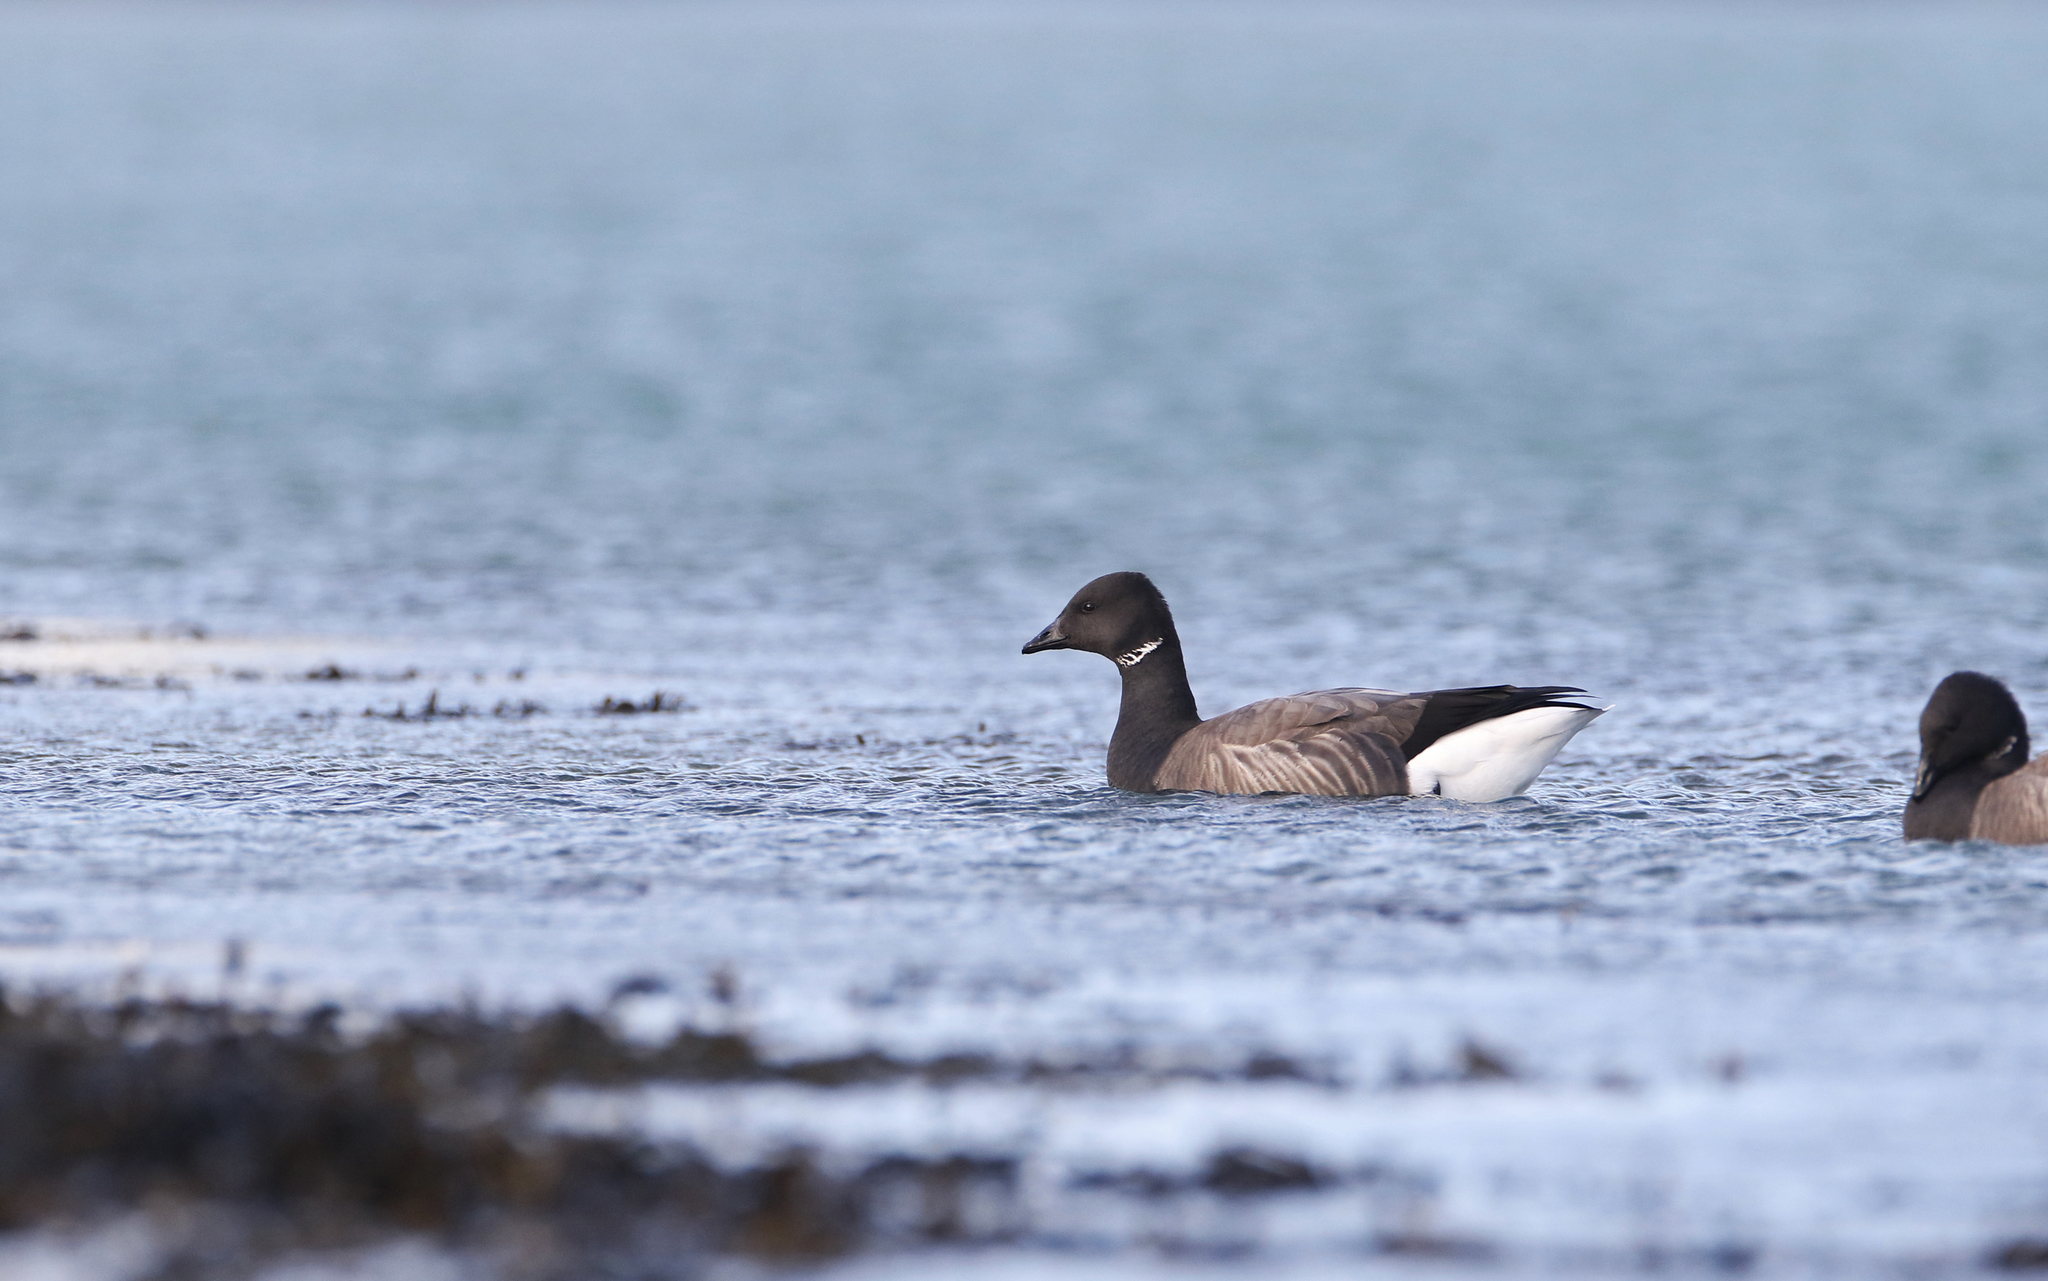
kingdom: Animalia
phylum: Chordata
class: Aves
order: Anseriformes
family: Anatidae
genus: Branta
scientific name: Branta bernicla
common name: Brant goose
